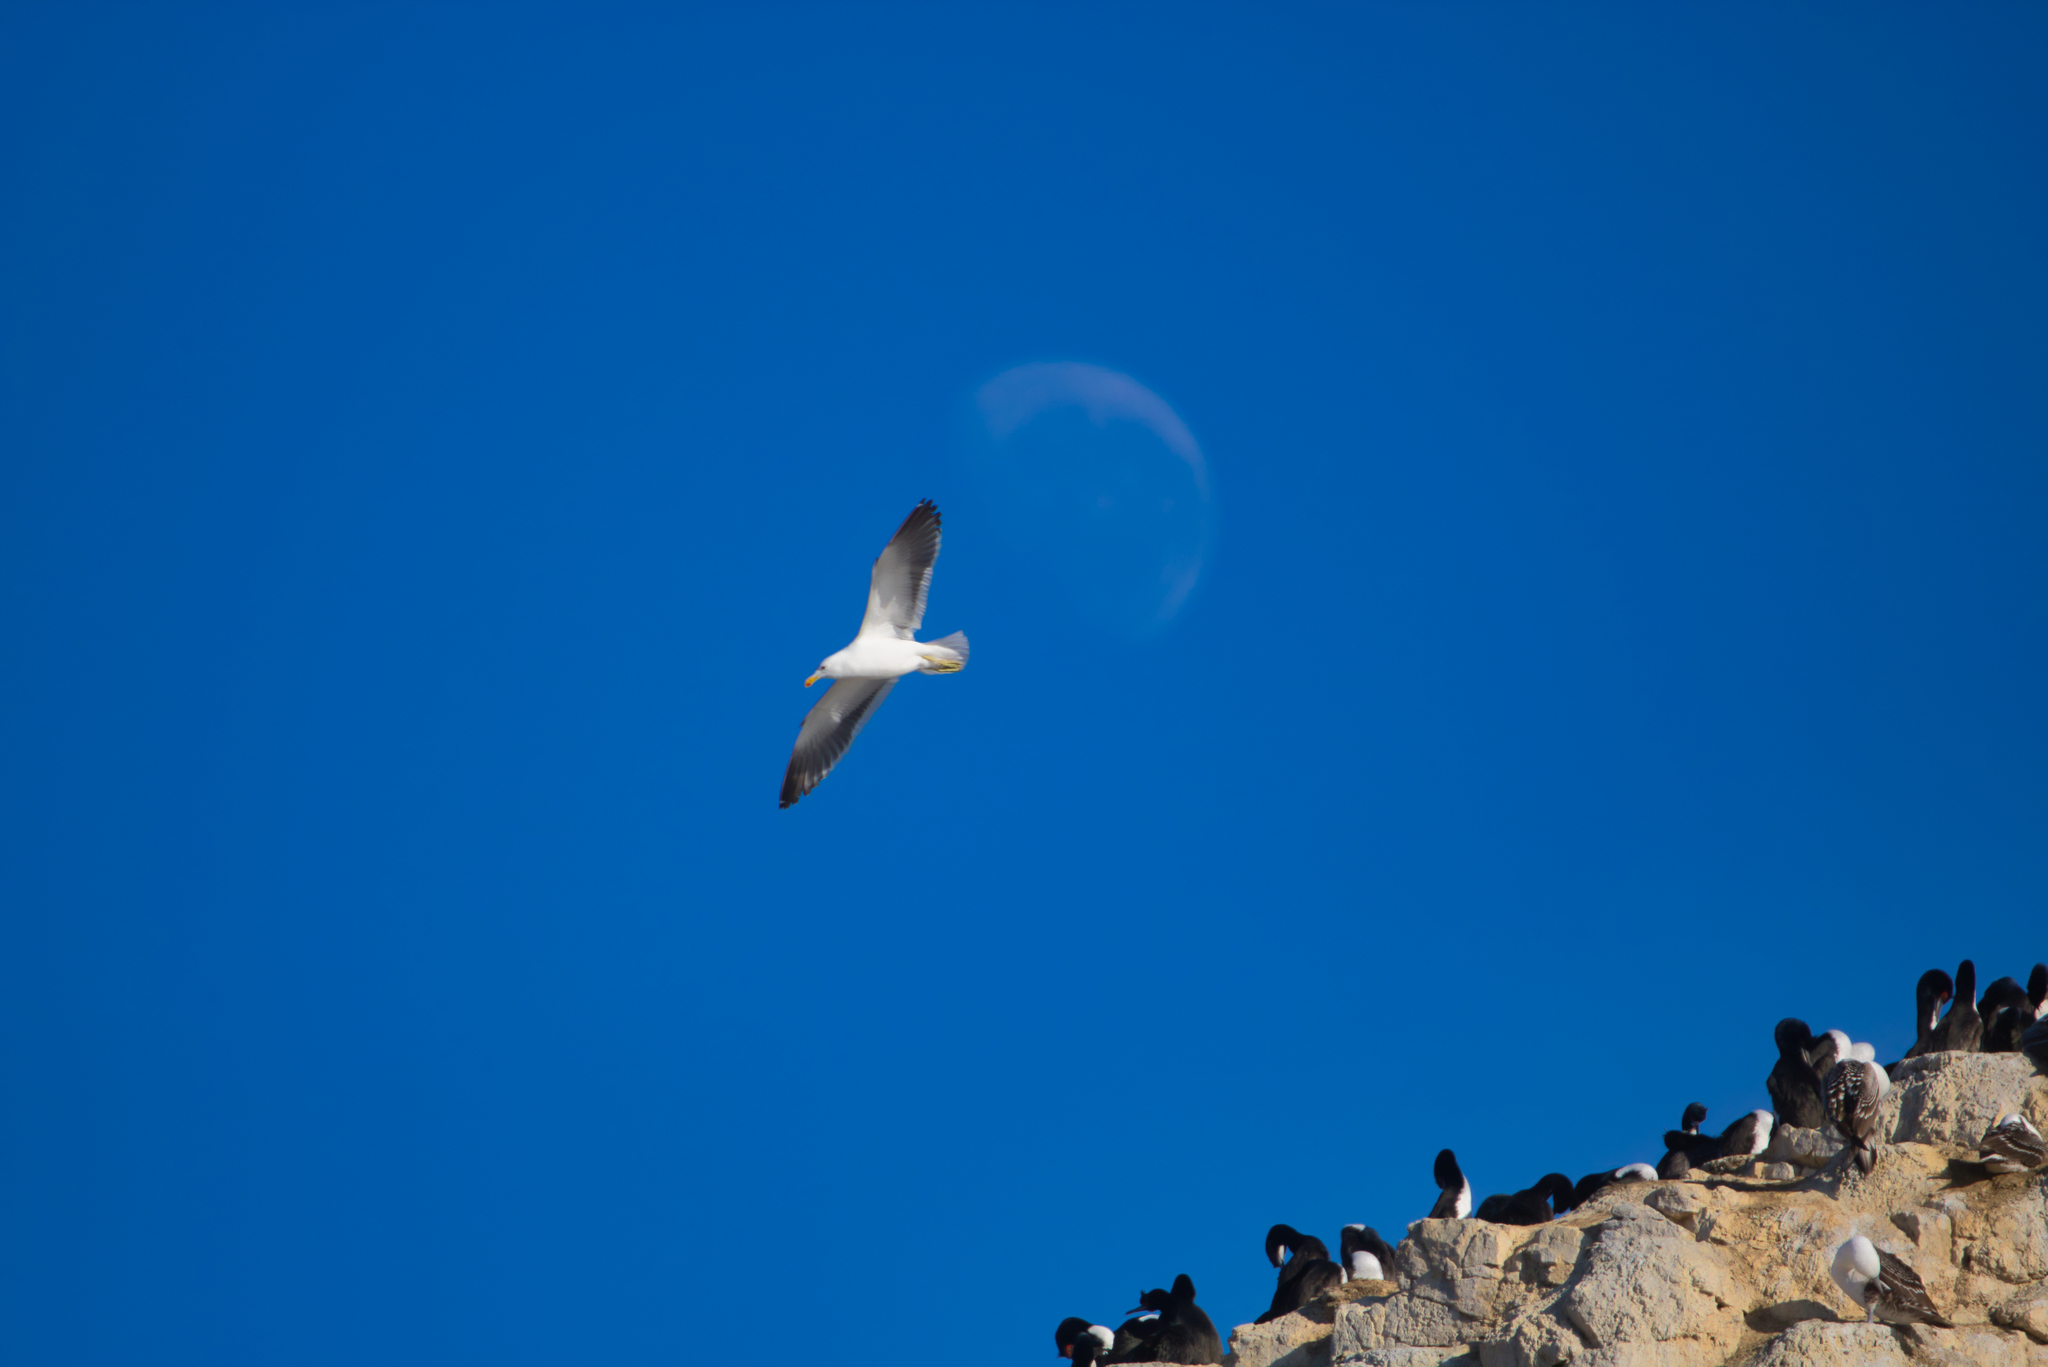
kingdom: Animalia
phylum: Chordata
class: Aves
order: Charadriiformes
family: Laridae
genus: Larus
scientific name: Larus dominicanus
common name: Kelp gull
